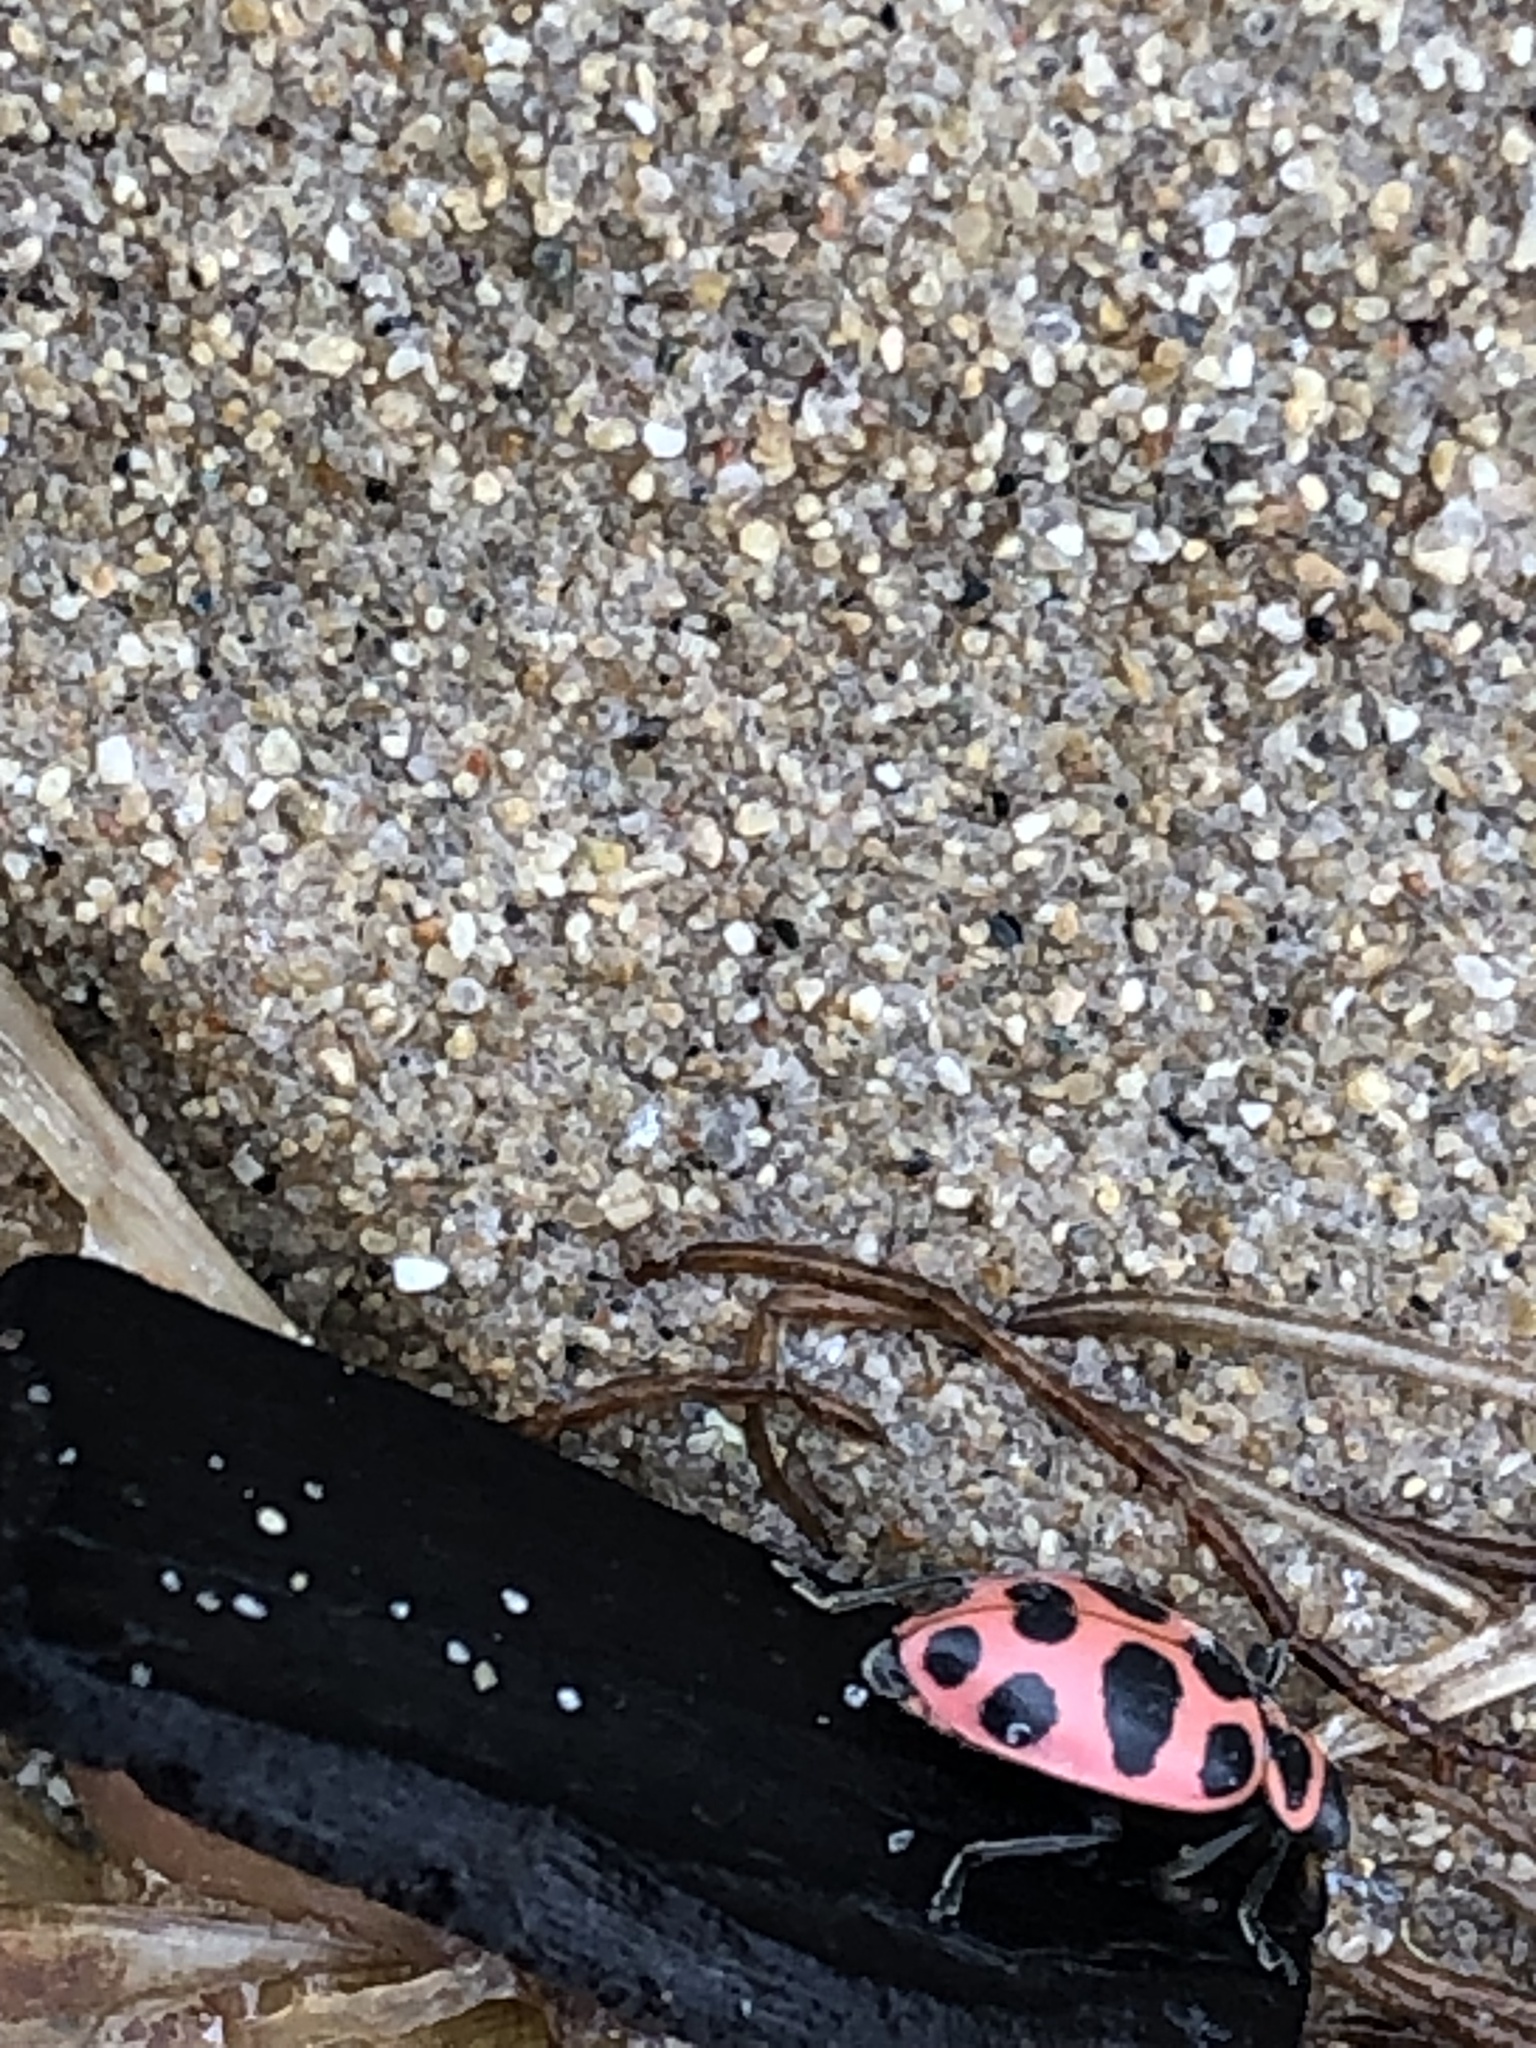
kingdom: Animalia
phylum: Arthropoda
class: Insecta
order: Coleoptera
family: Coccinellidae
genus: Coleomegilla
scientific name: Coleomegilla maculata
